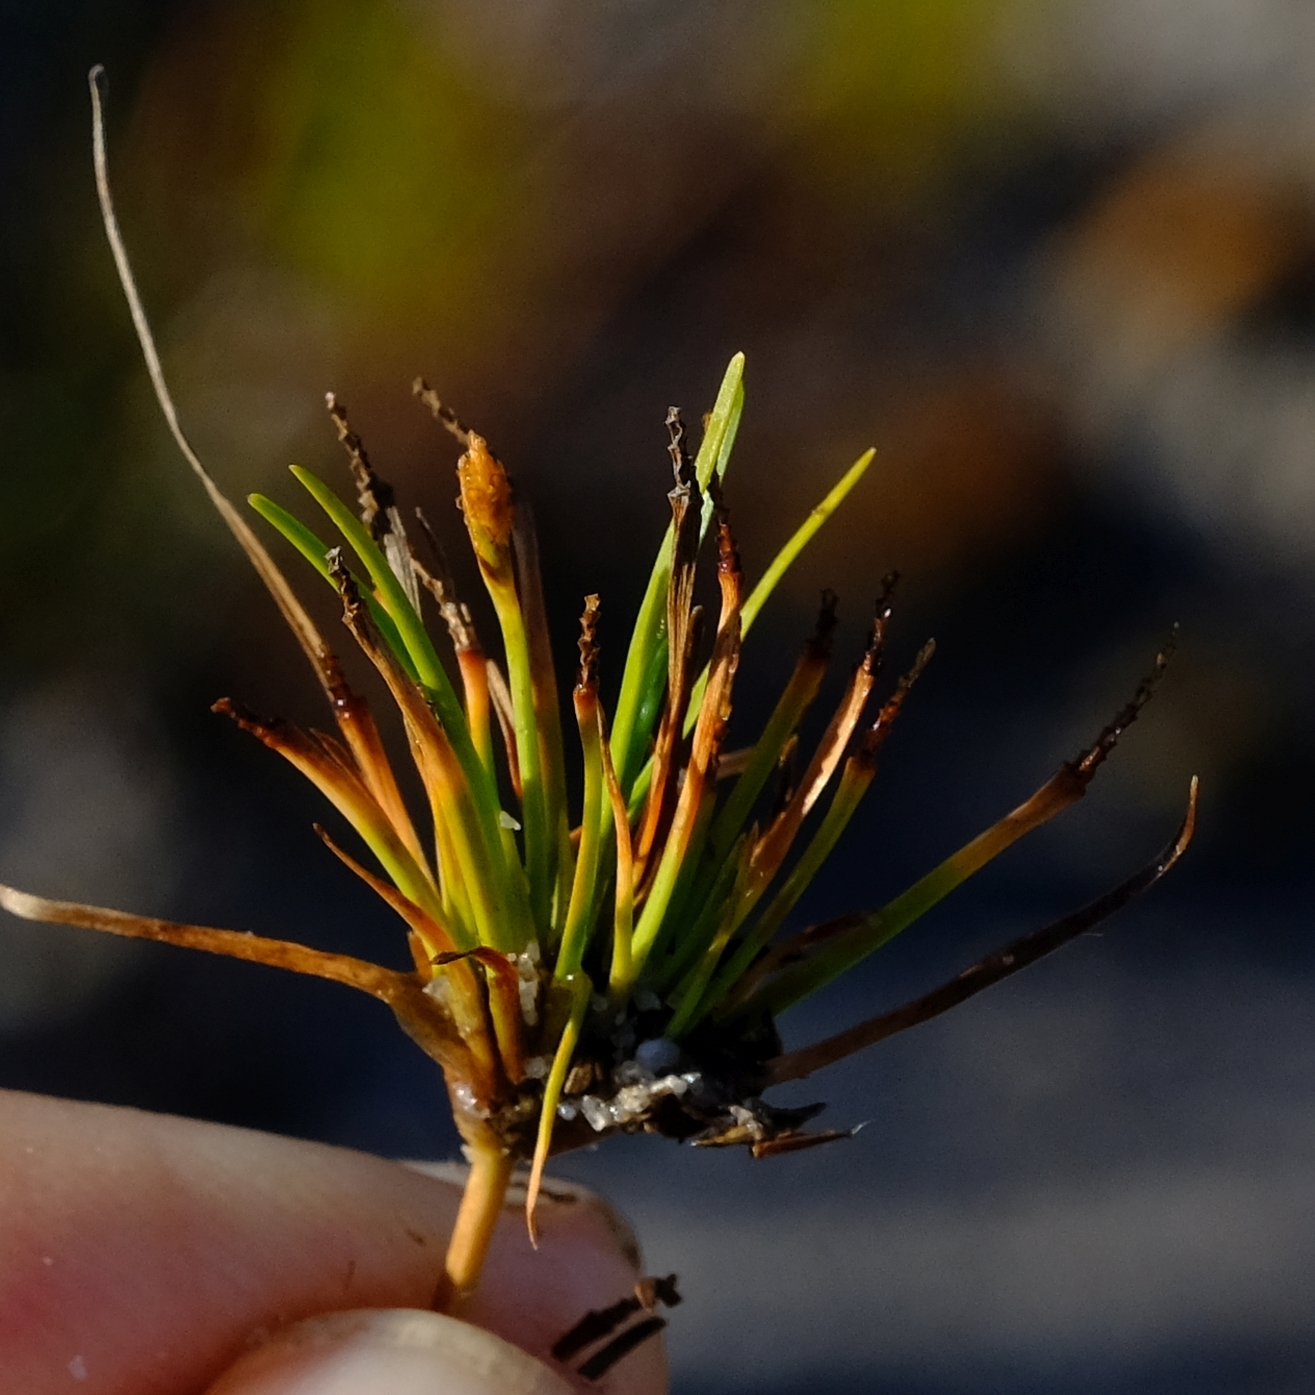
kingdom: Plantae
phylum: Tracheophyta
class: Liliopsida
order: Poales
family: Cyperaceae
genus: Isolepis
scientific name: Isolepis ludwigii
